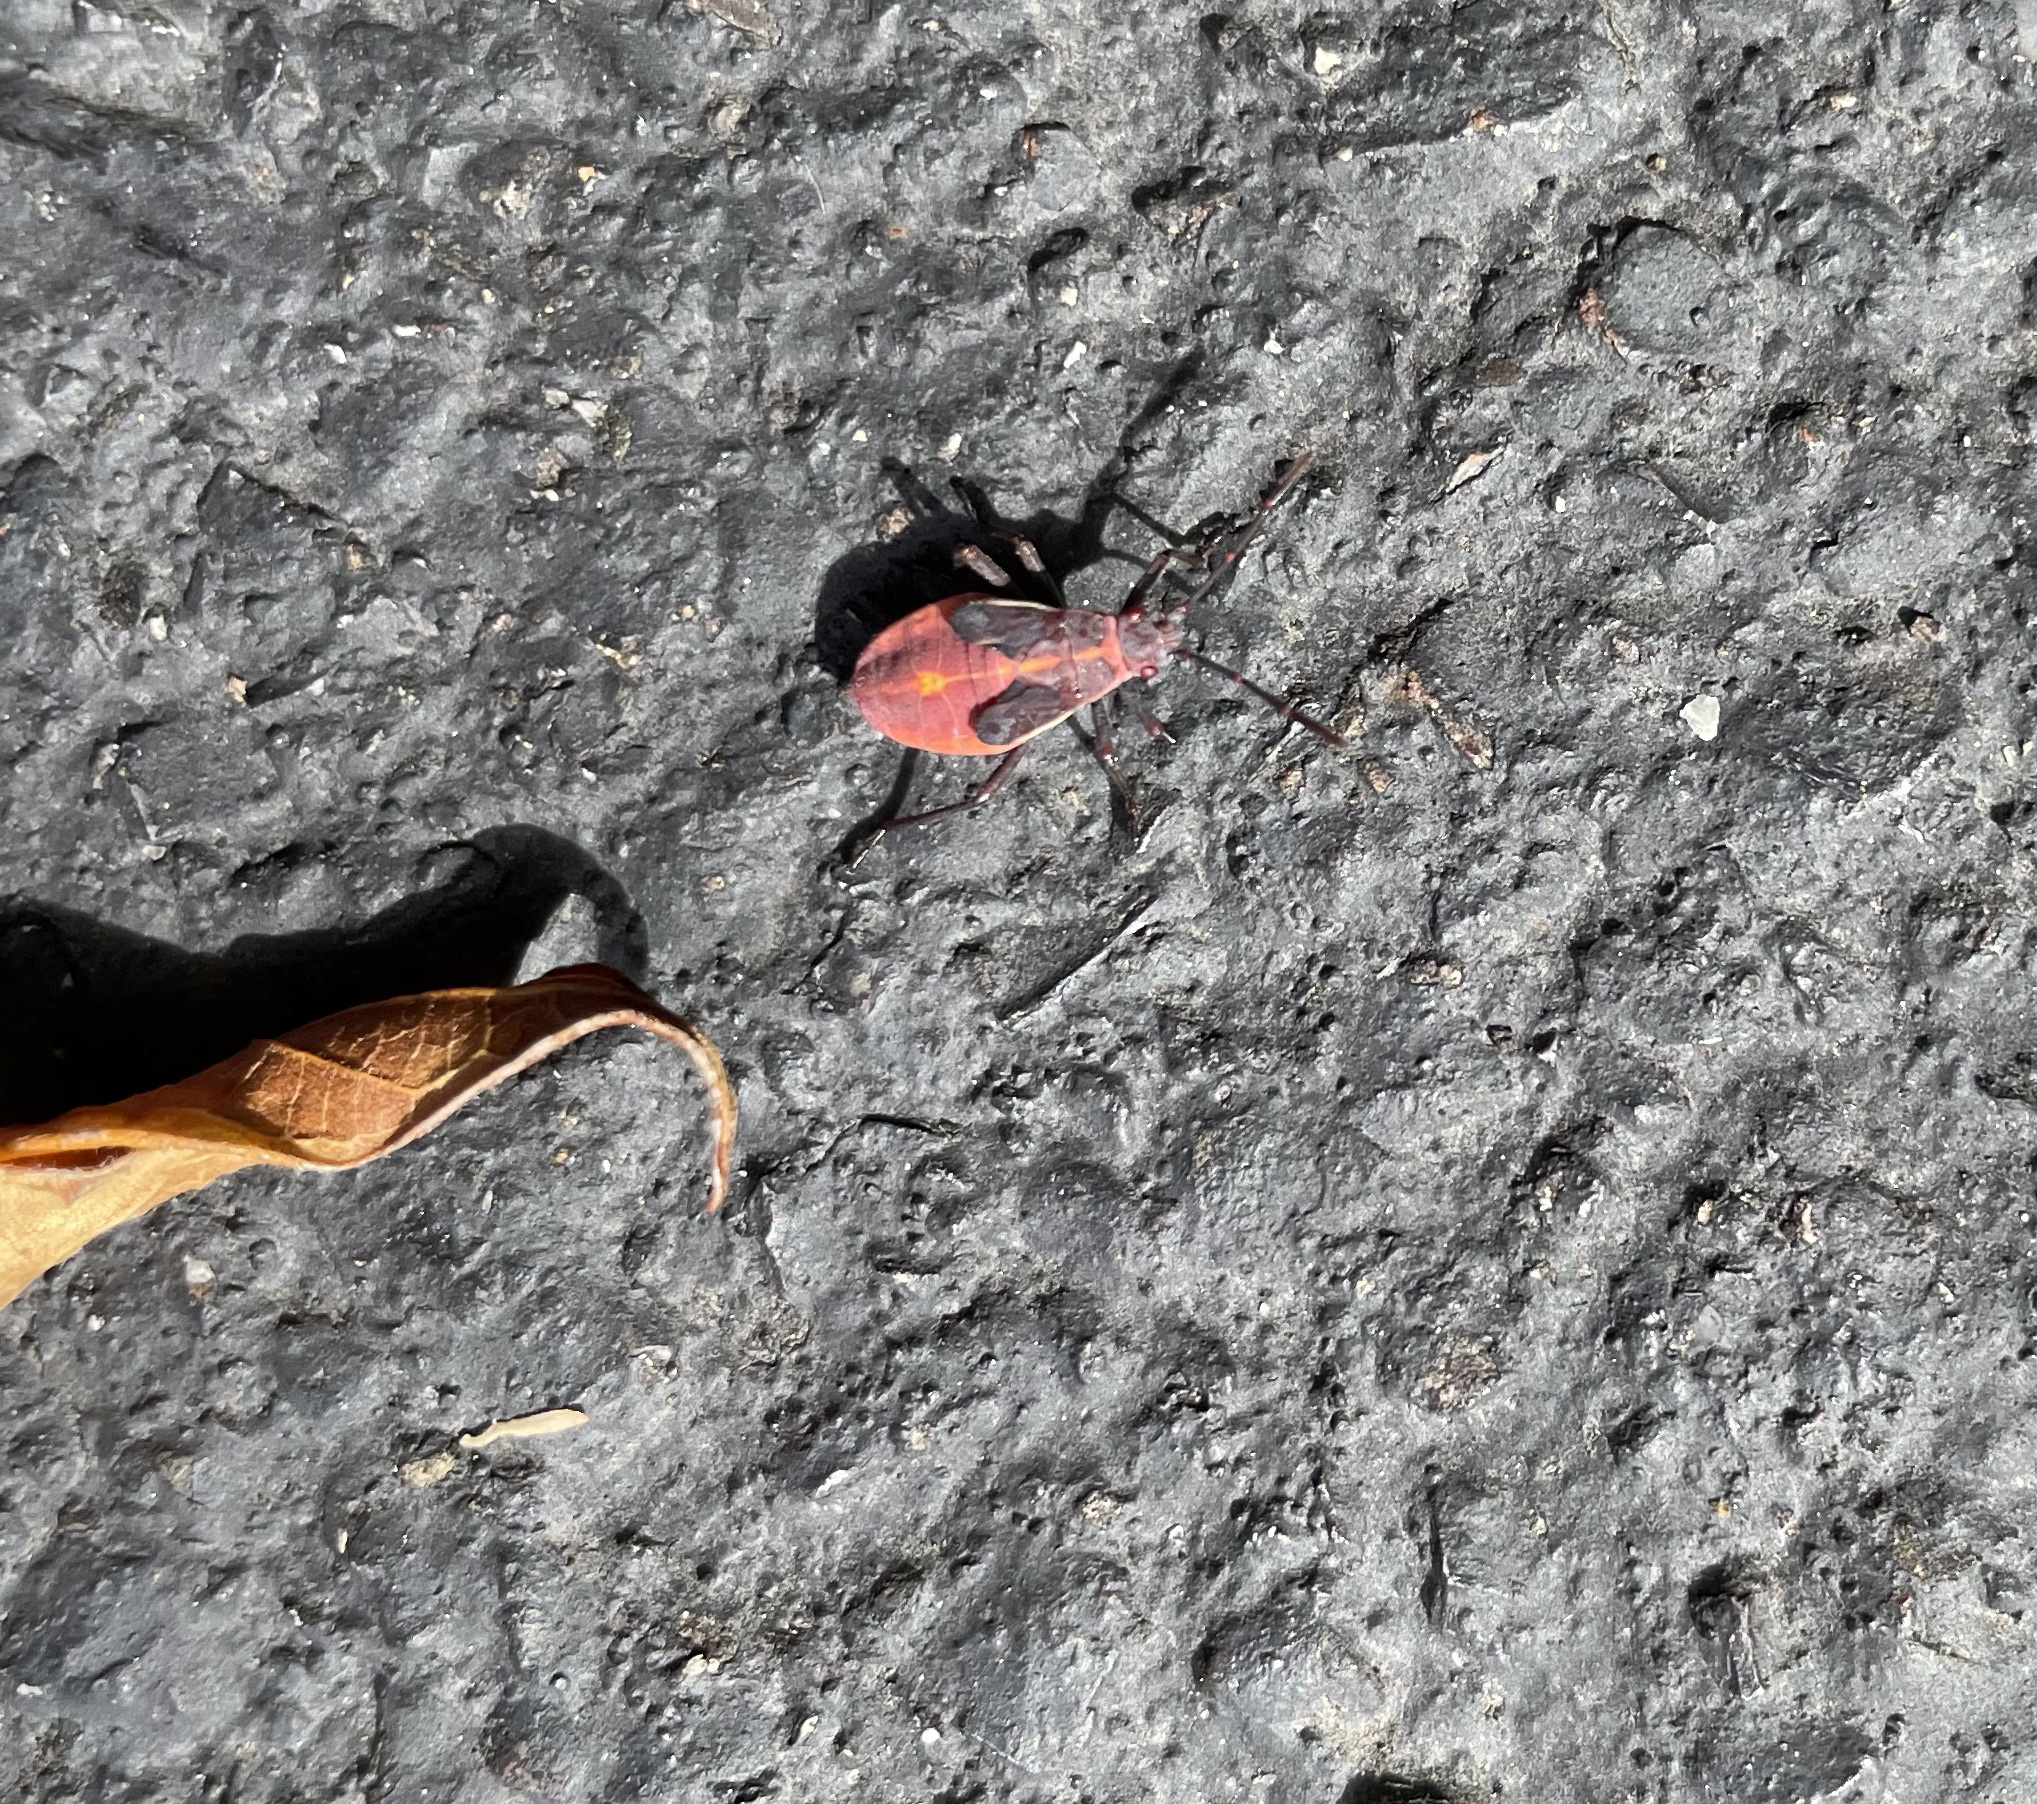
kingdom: Animalia
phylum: Arthropoda
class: Insecta
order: Hemiptera
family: Rhopalidae
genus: Boisea
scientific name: Boisea trivittata
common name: Boxelder bug
